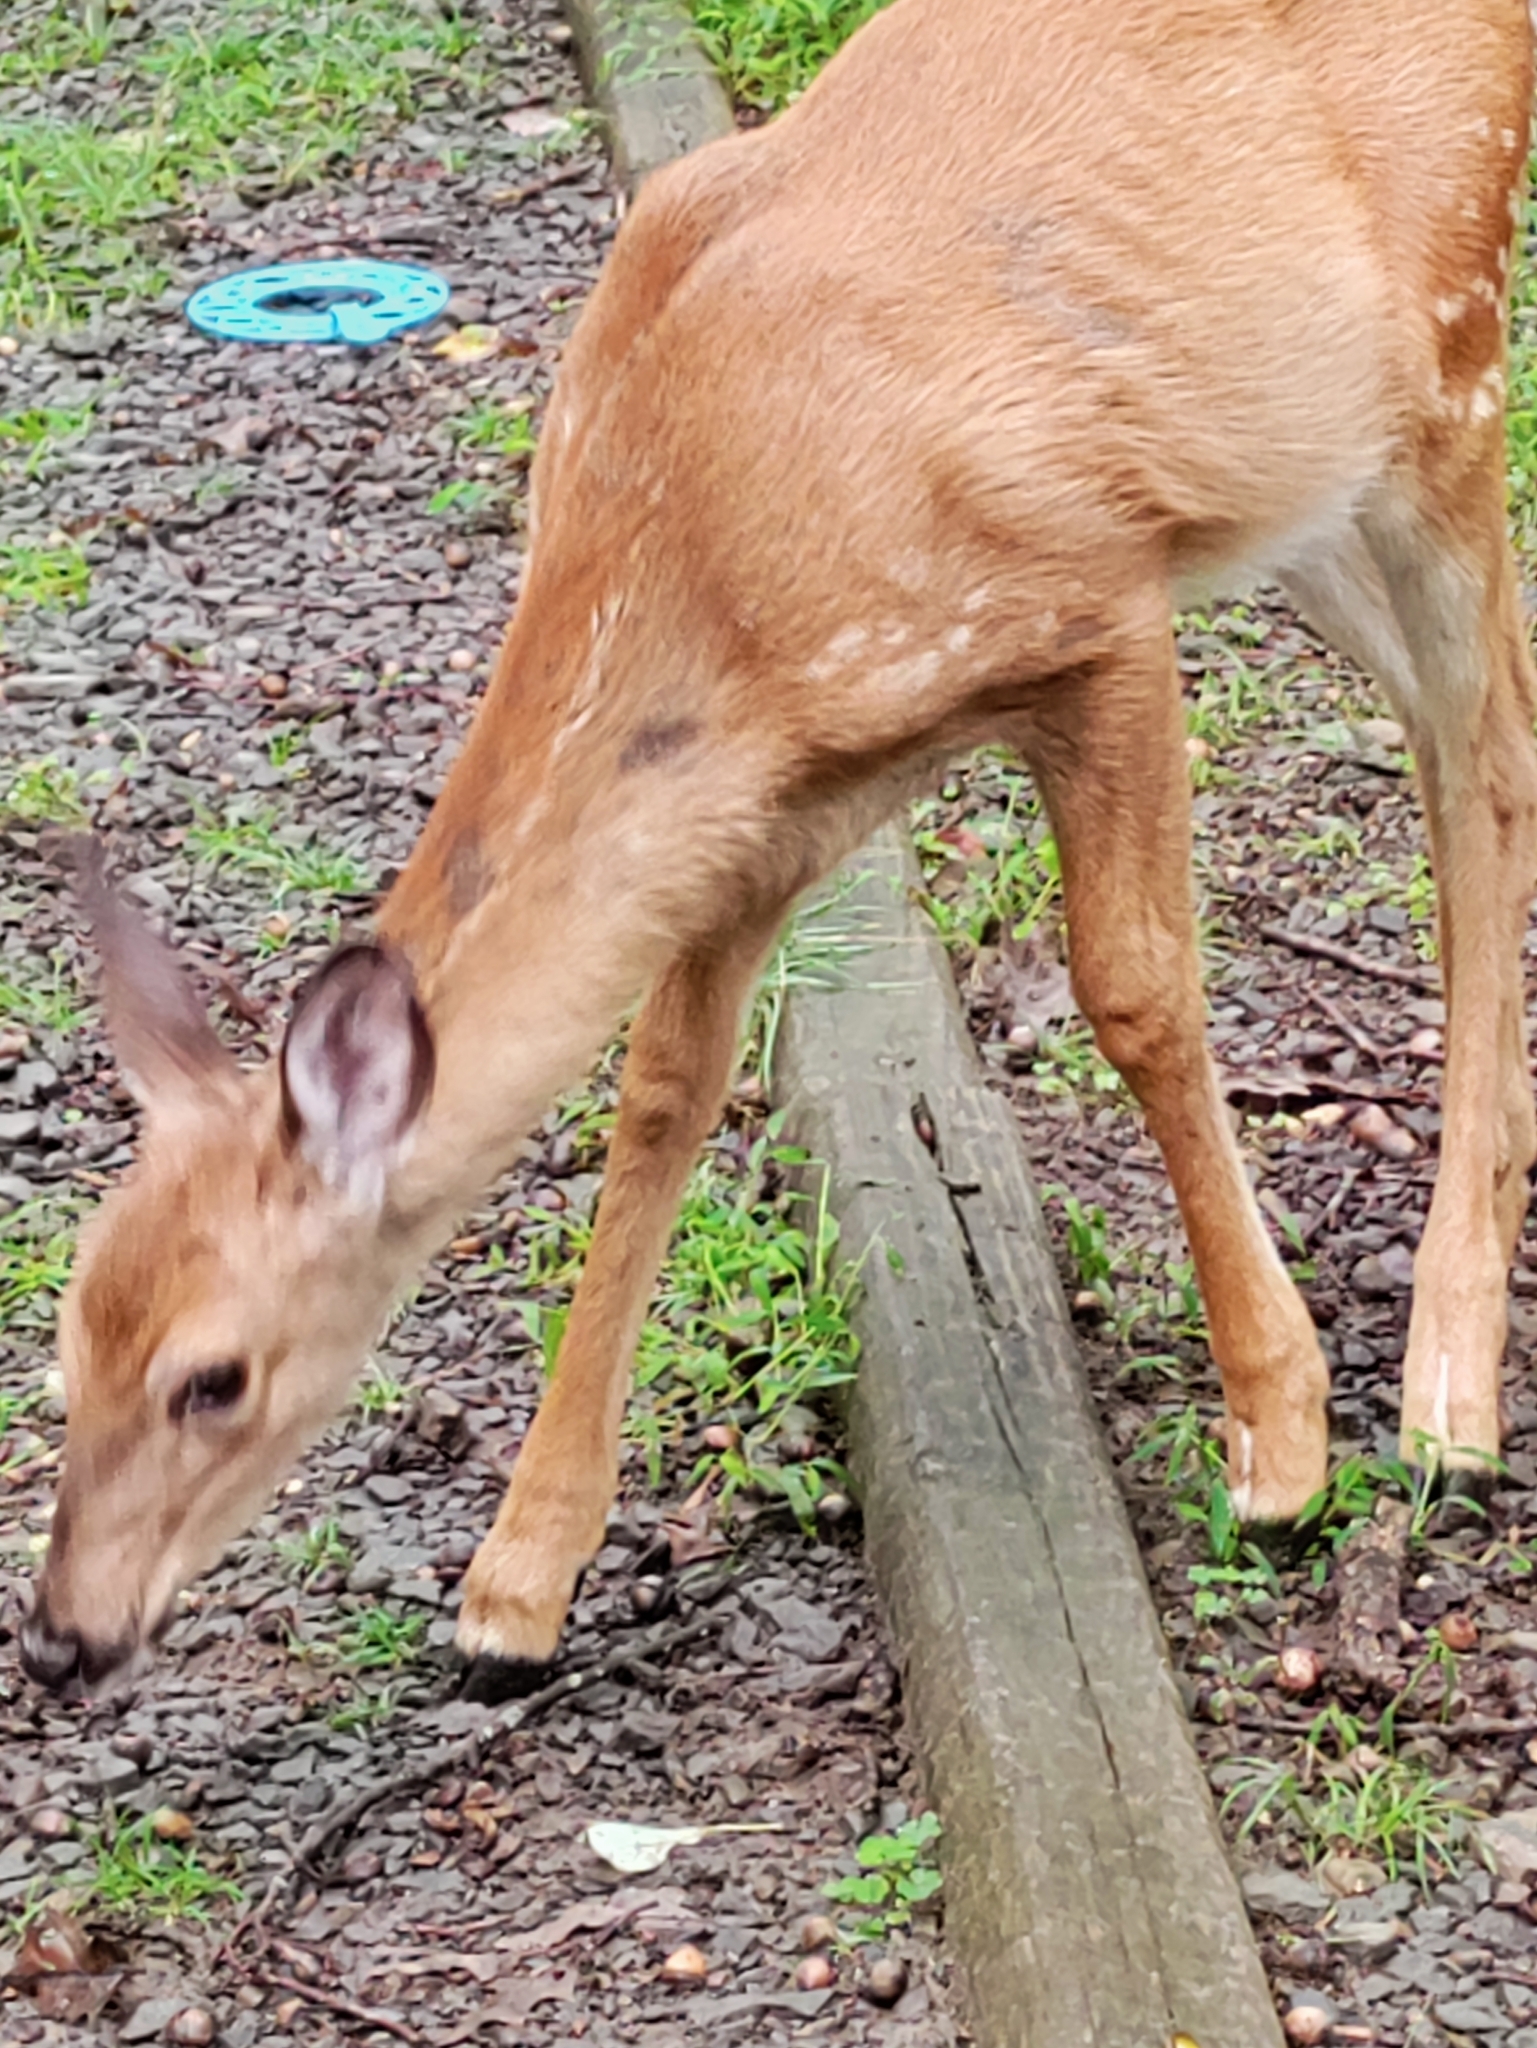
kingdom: Animalia
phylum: Chordata
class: Mammalia
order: Artiodactyla
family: Cervidae
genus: Odocoileus
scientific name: Odocoileus virginianus
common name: White-tailed deer
